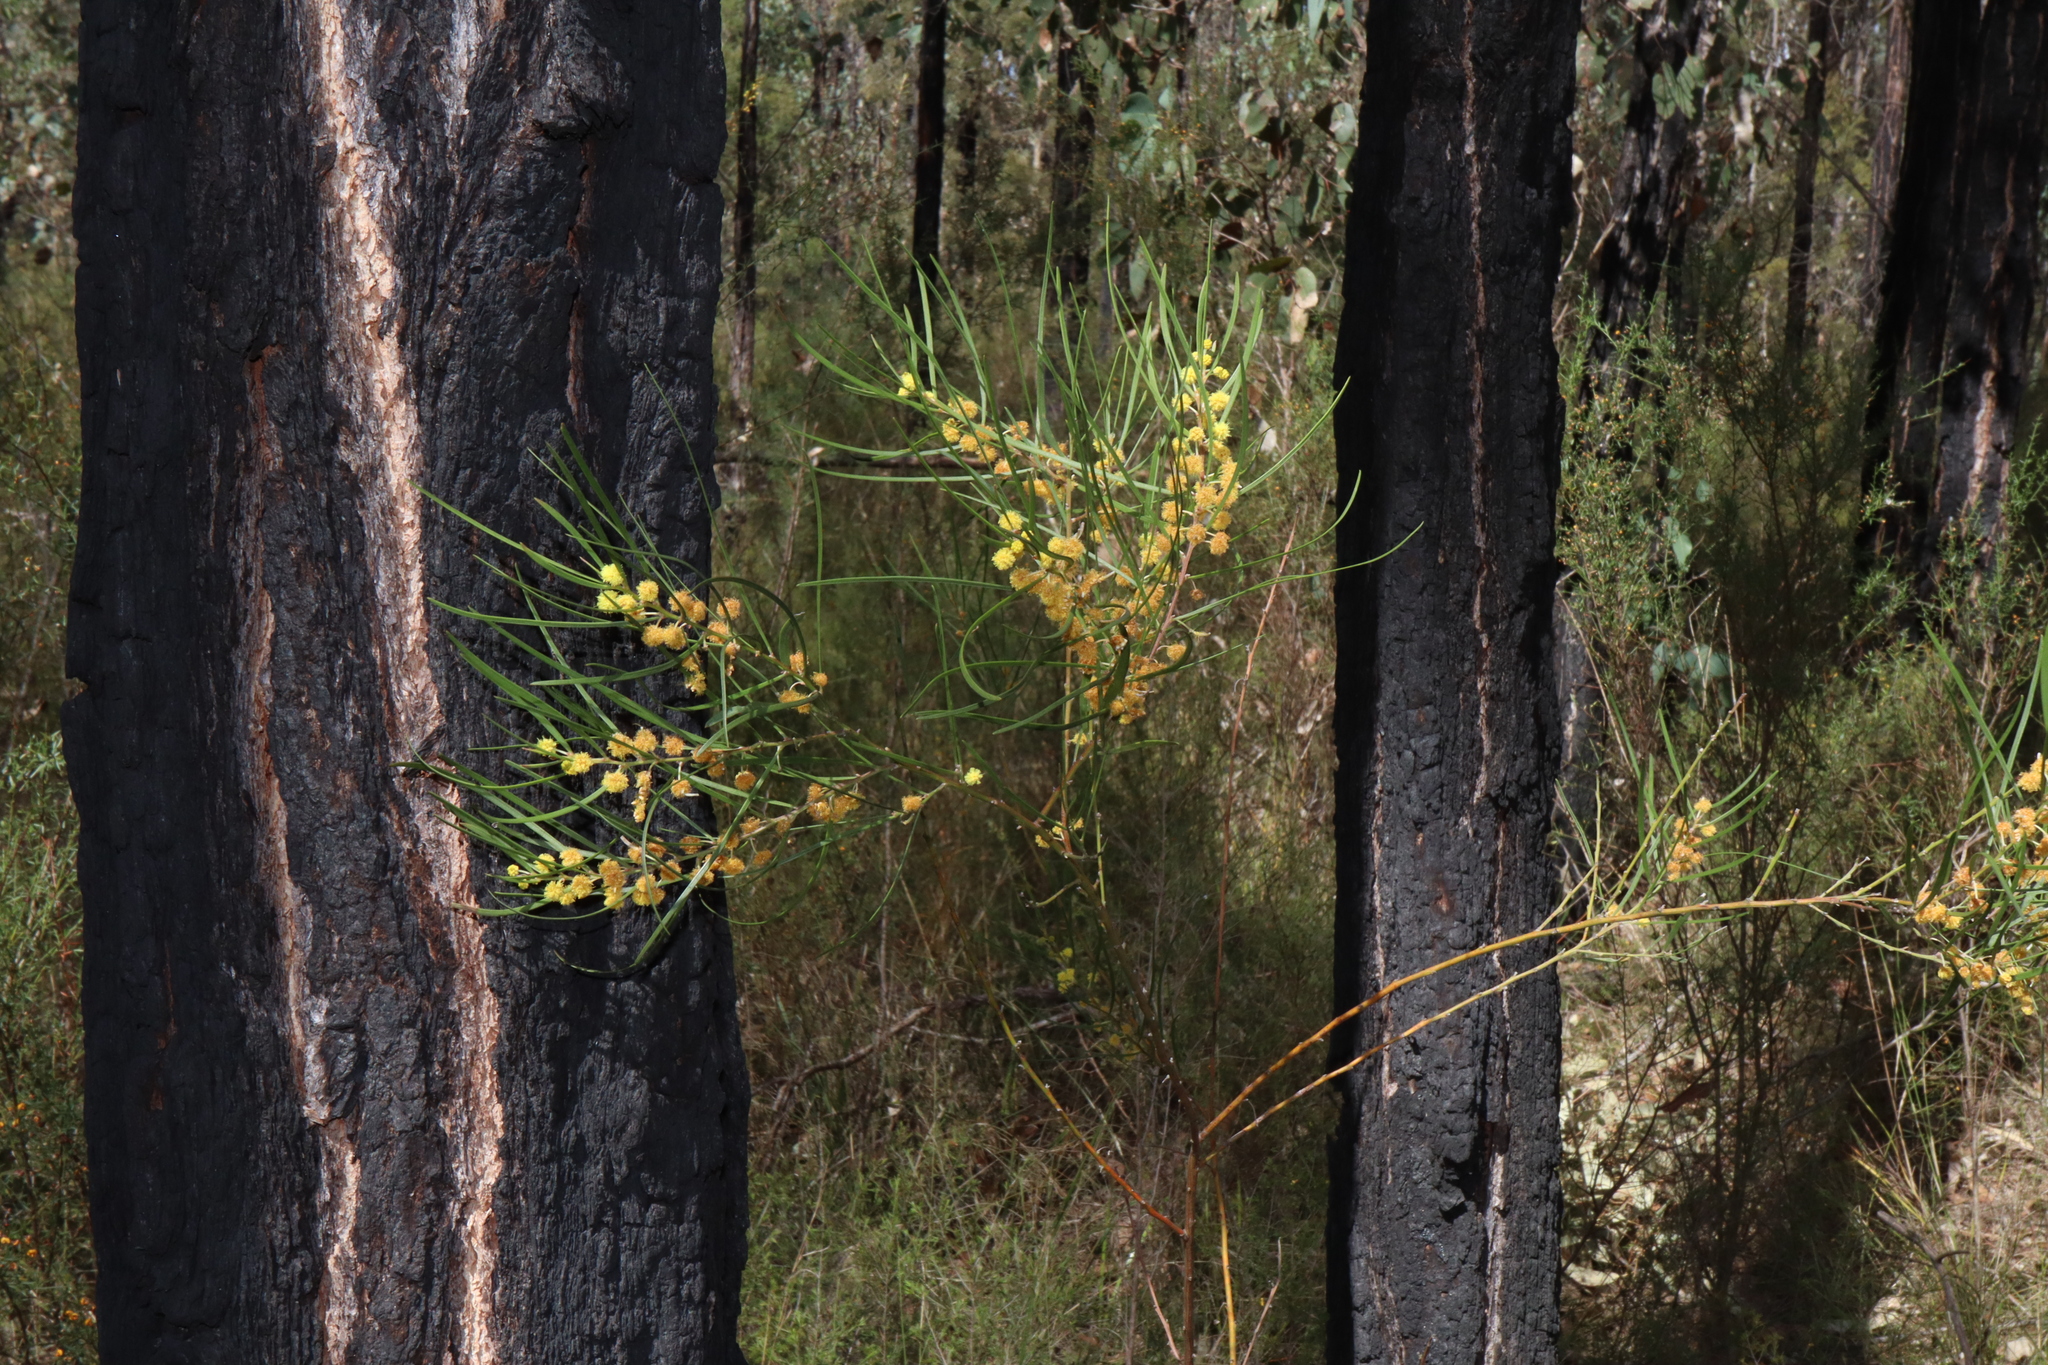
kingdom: Plantae
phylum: Tracheophyta
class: Magnoliopsida
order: Fabales
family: Fabaceae
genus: Acacia
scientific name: Acacia elongata
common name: Swamp wattle
